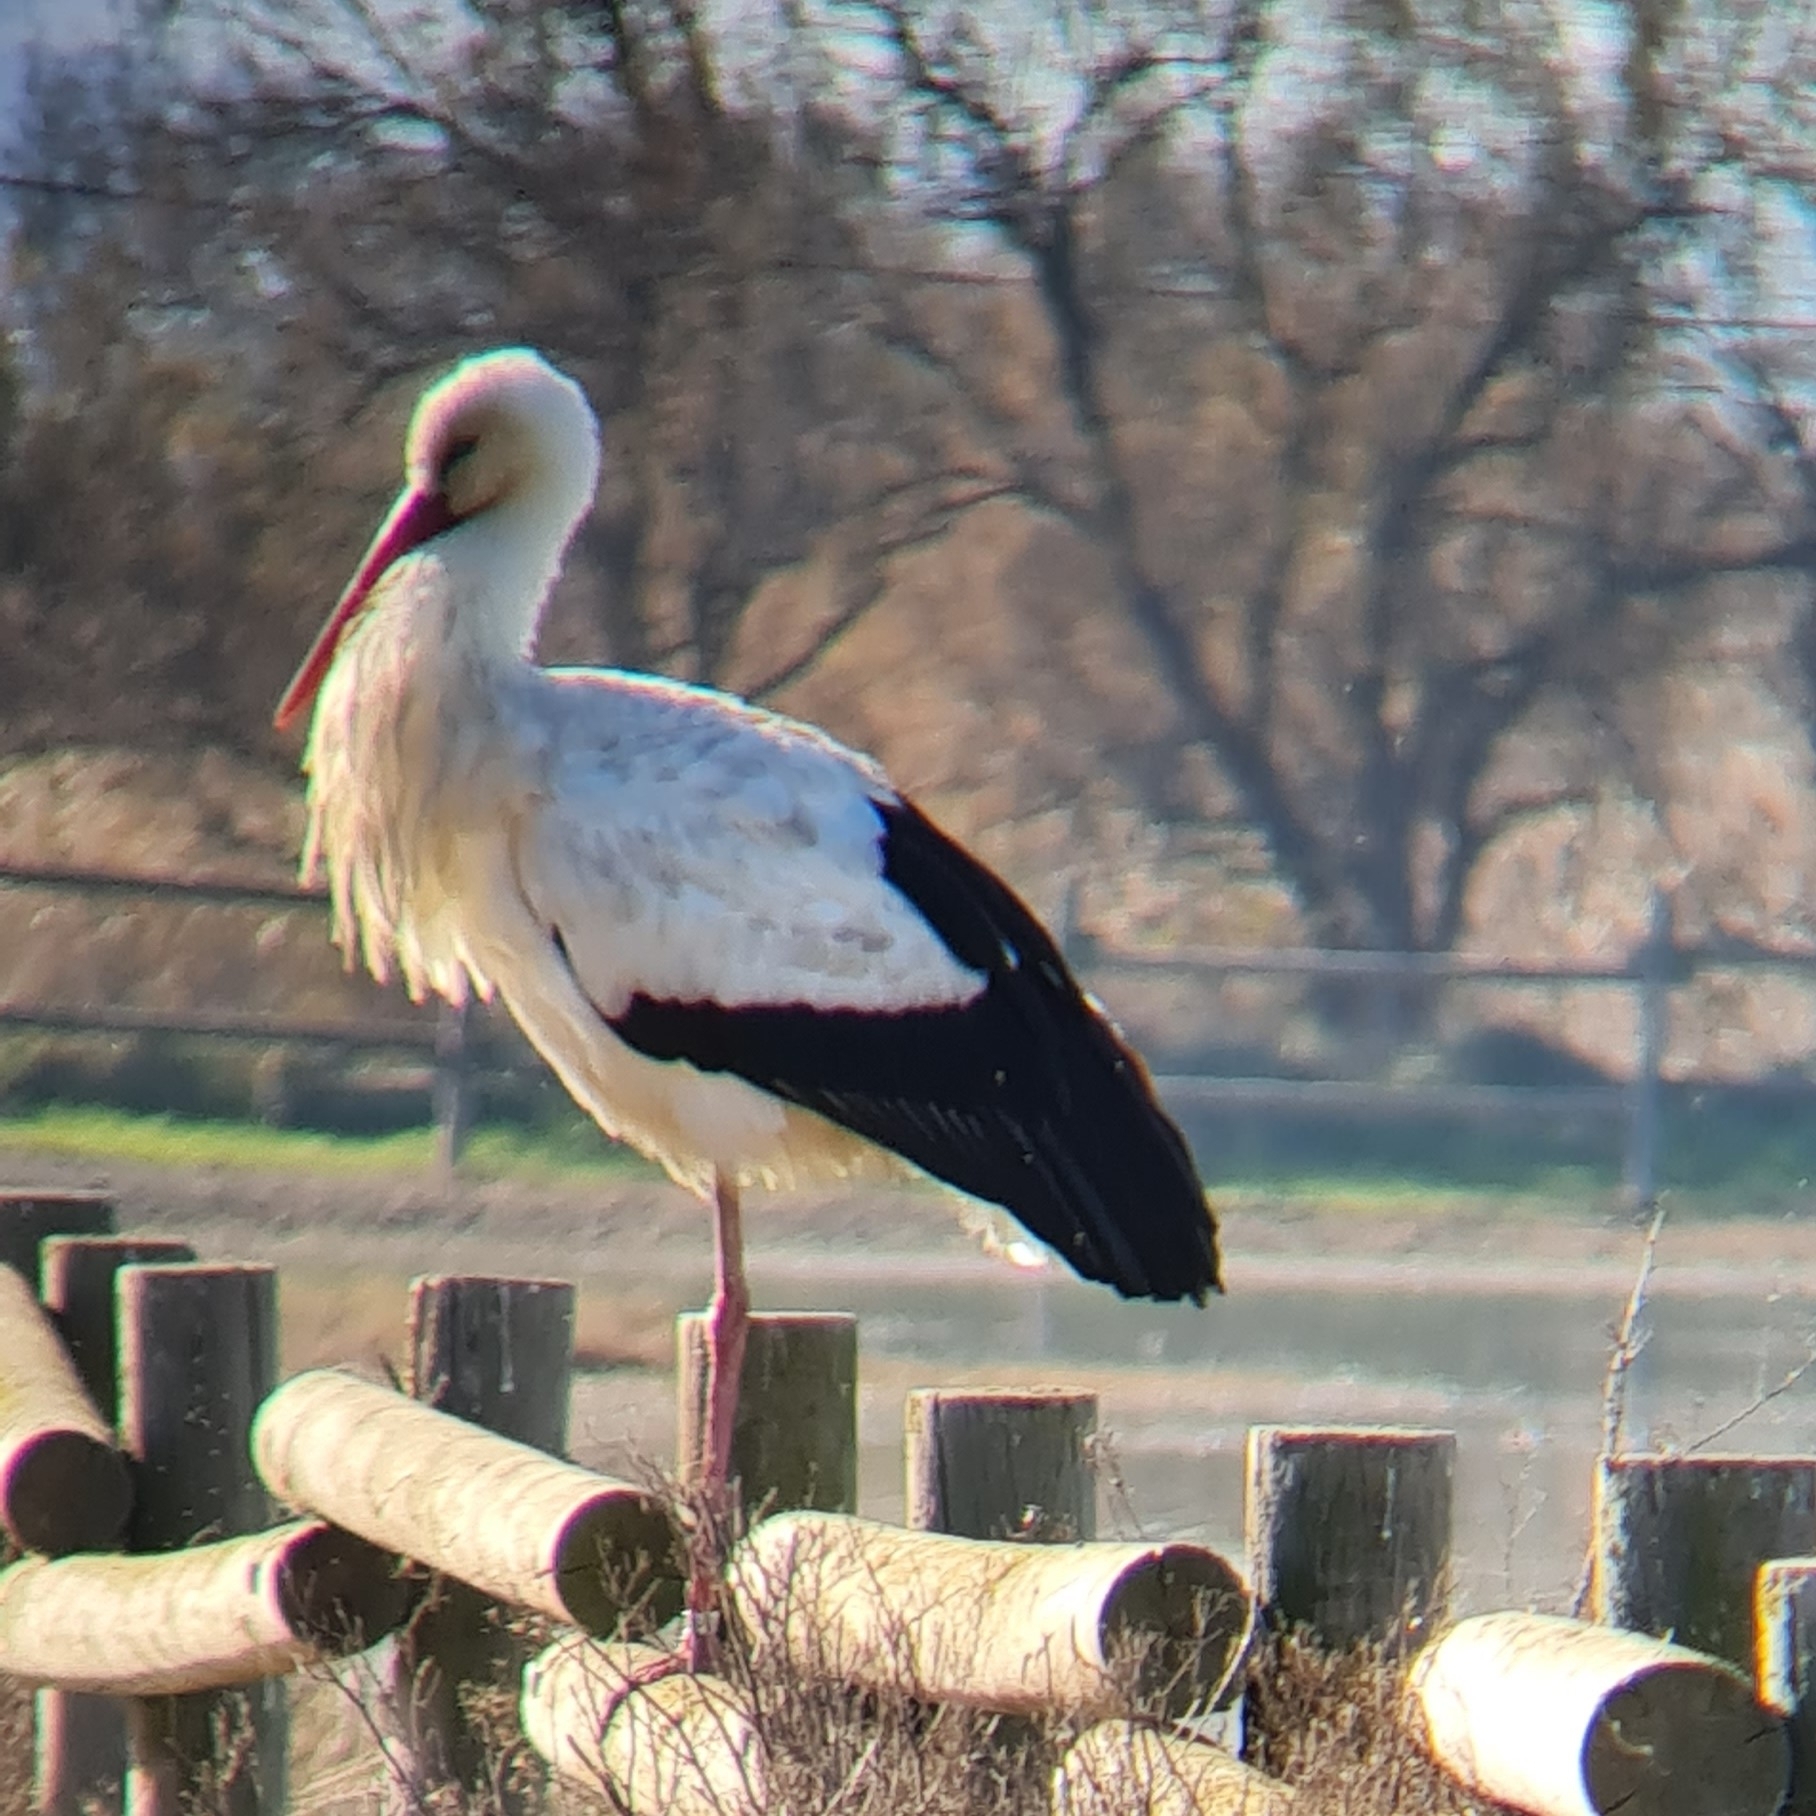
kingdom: Animalia
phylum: Chordata
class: Aves
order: Ciconiiformes
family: Ciconiidae
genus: Ciconia
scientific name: Ciconia ciconia
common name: White stork
